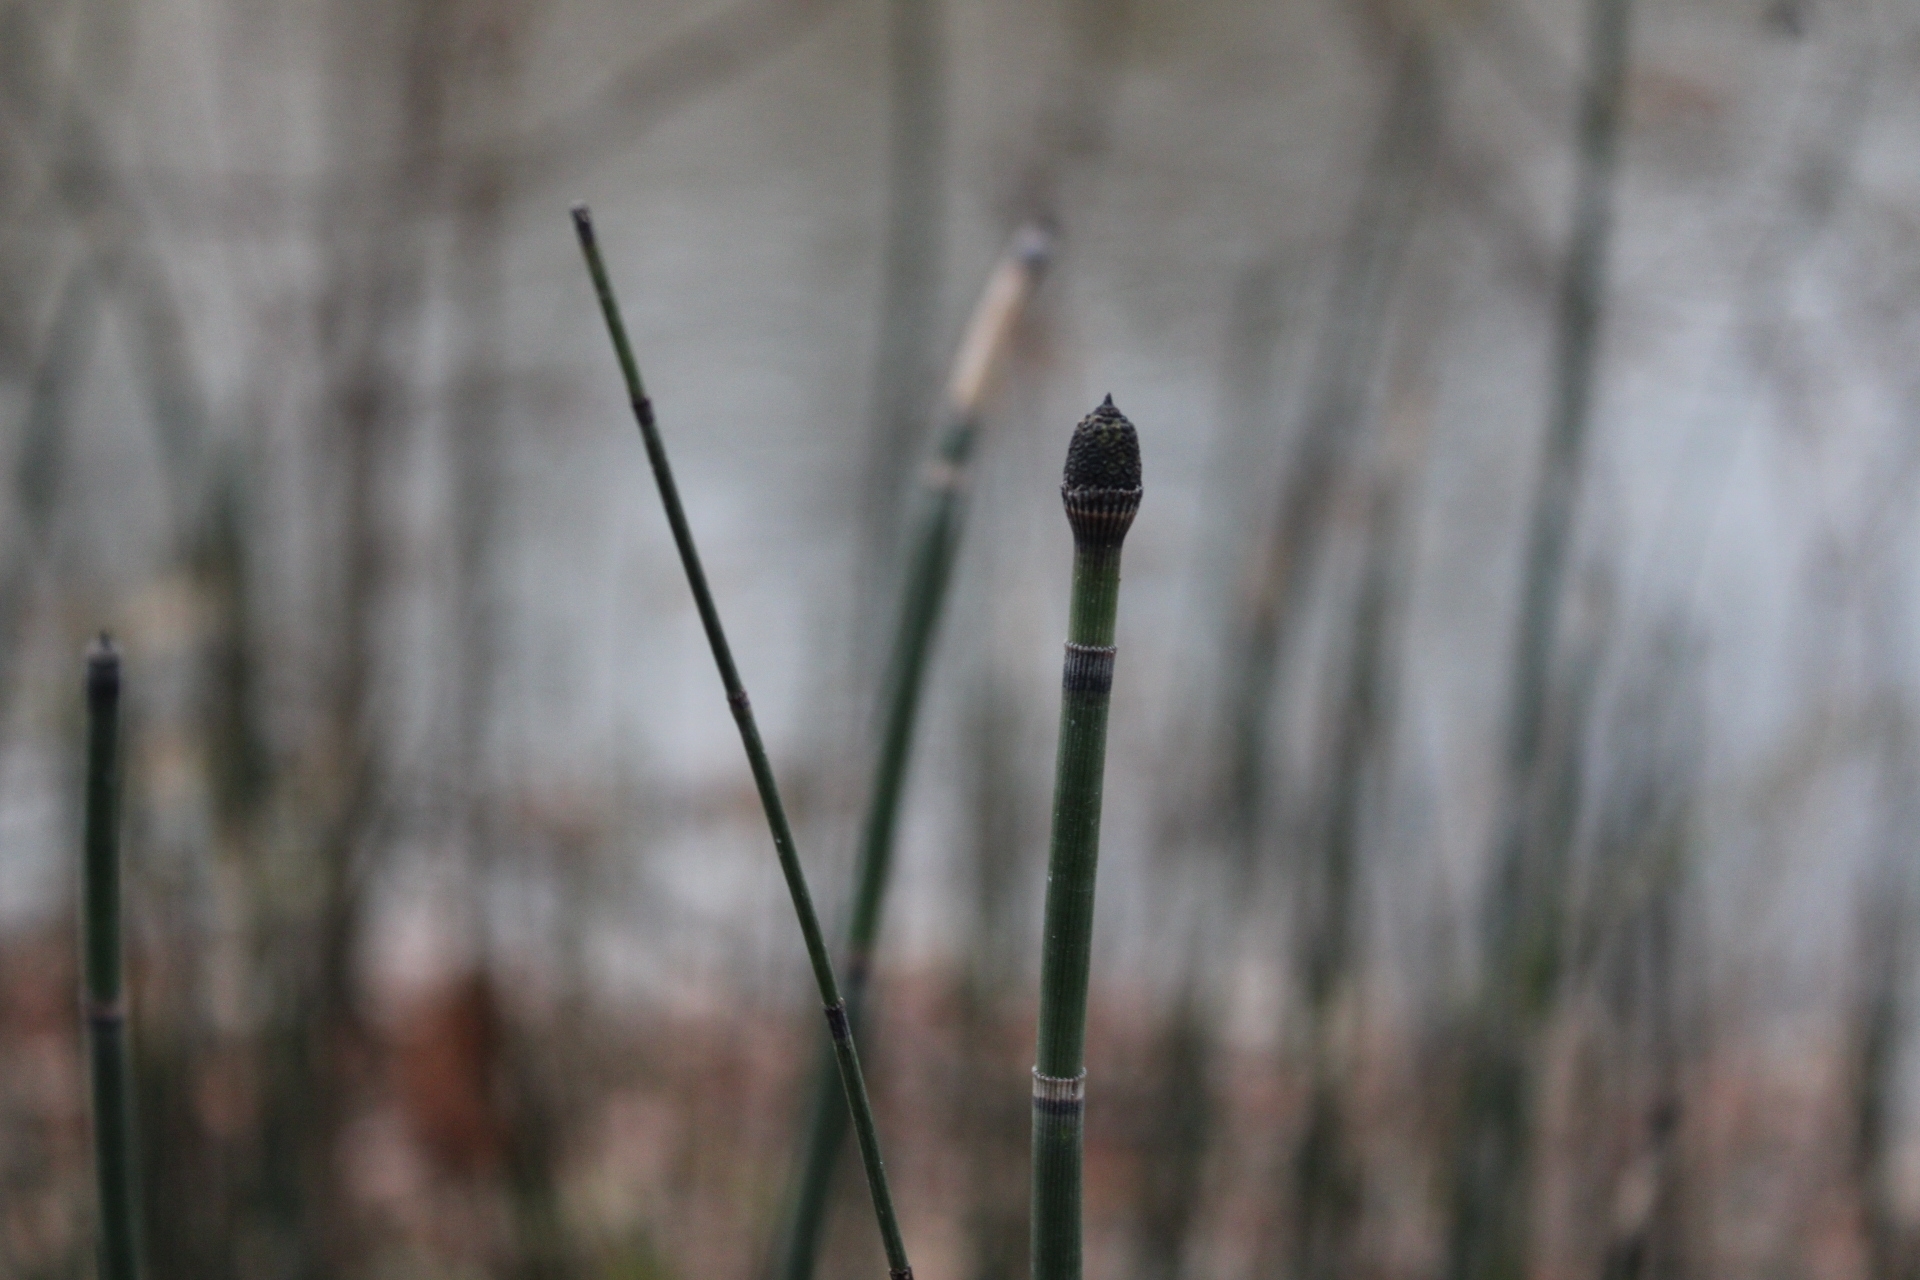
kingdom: Plantae
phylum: Tracheophyta
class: Polypodiopsida
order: Equisetales
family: Equisetaceae
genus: Equisetum
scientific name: Equisetum praealtum
